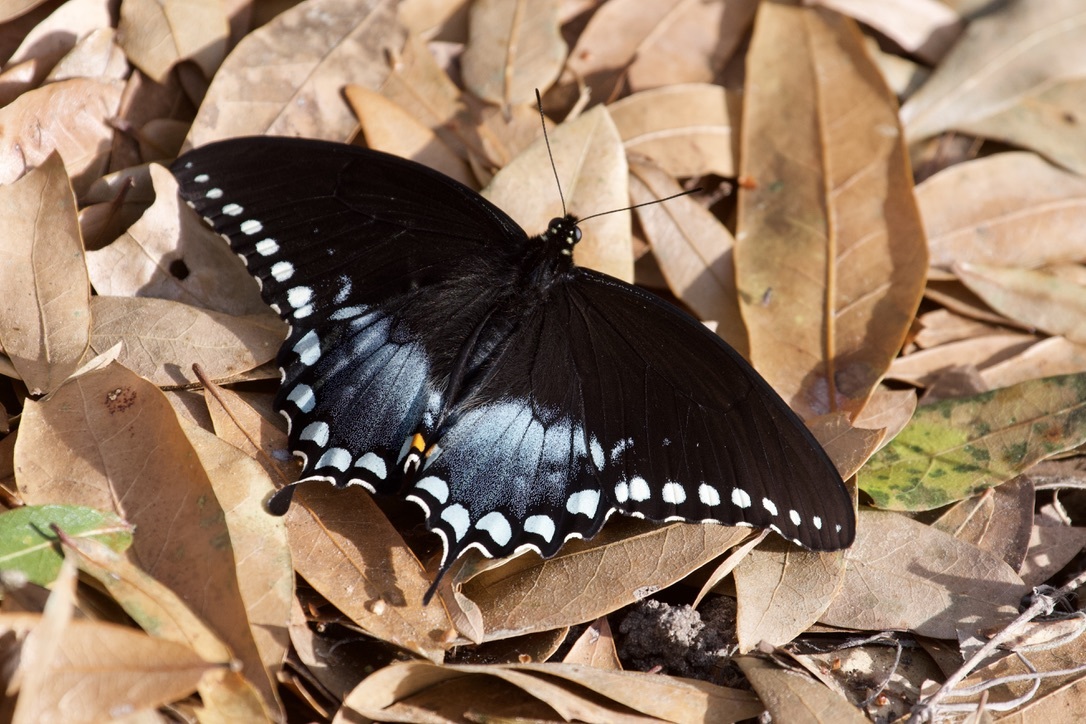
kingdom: Animalia
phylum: Arthropoda
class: Insecta
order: Lepidoptera
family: Papilionidae
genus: Papilio
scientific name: Papilio troilus
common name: Spicebush swallowtail
